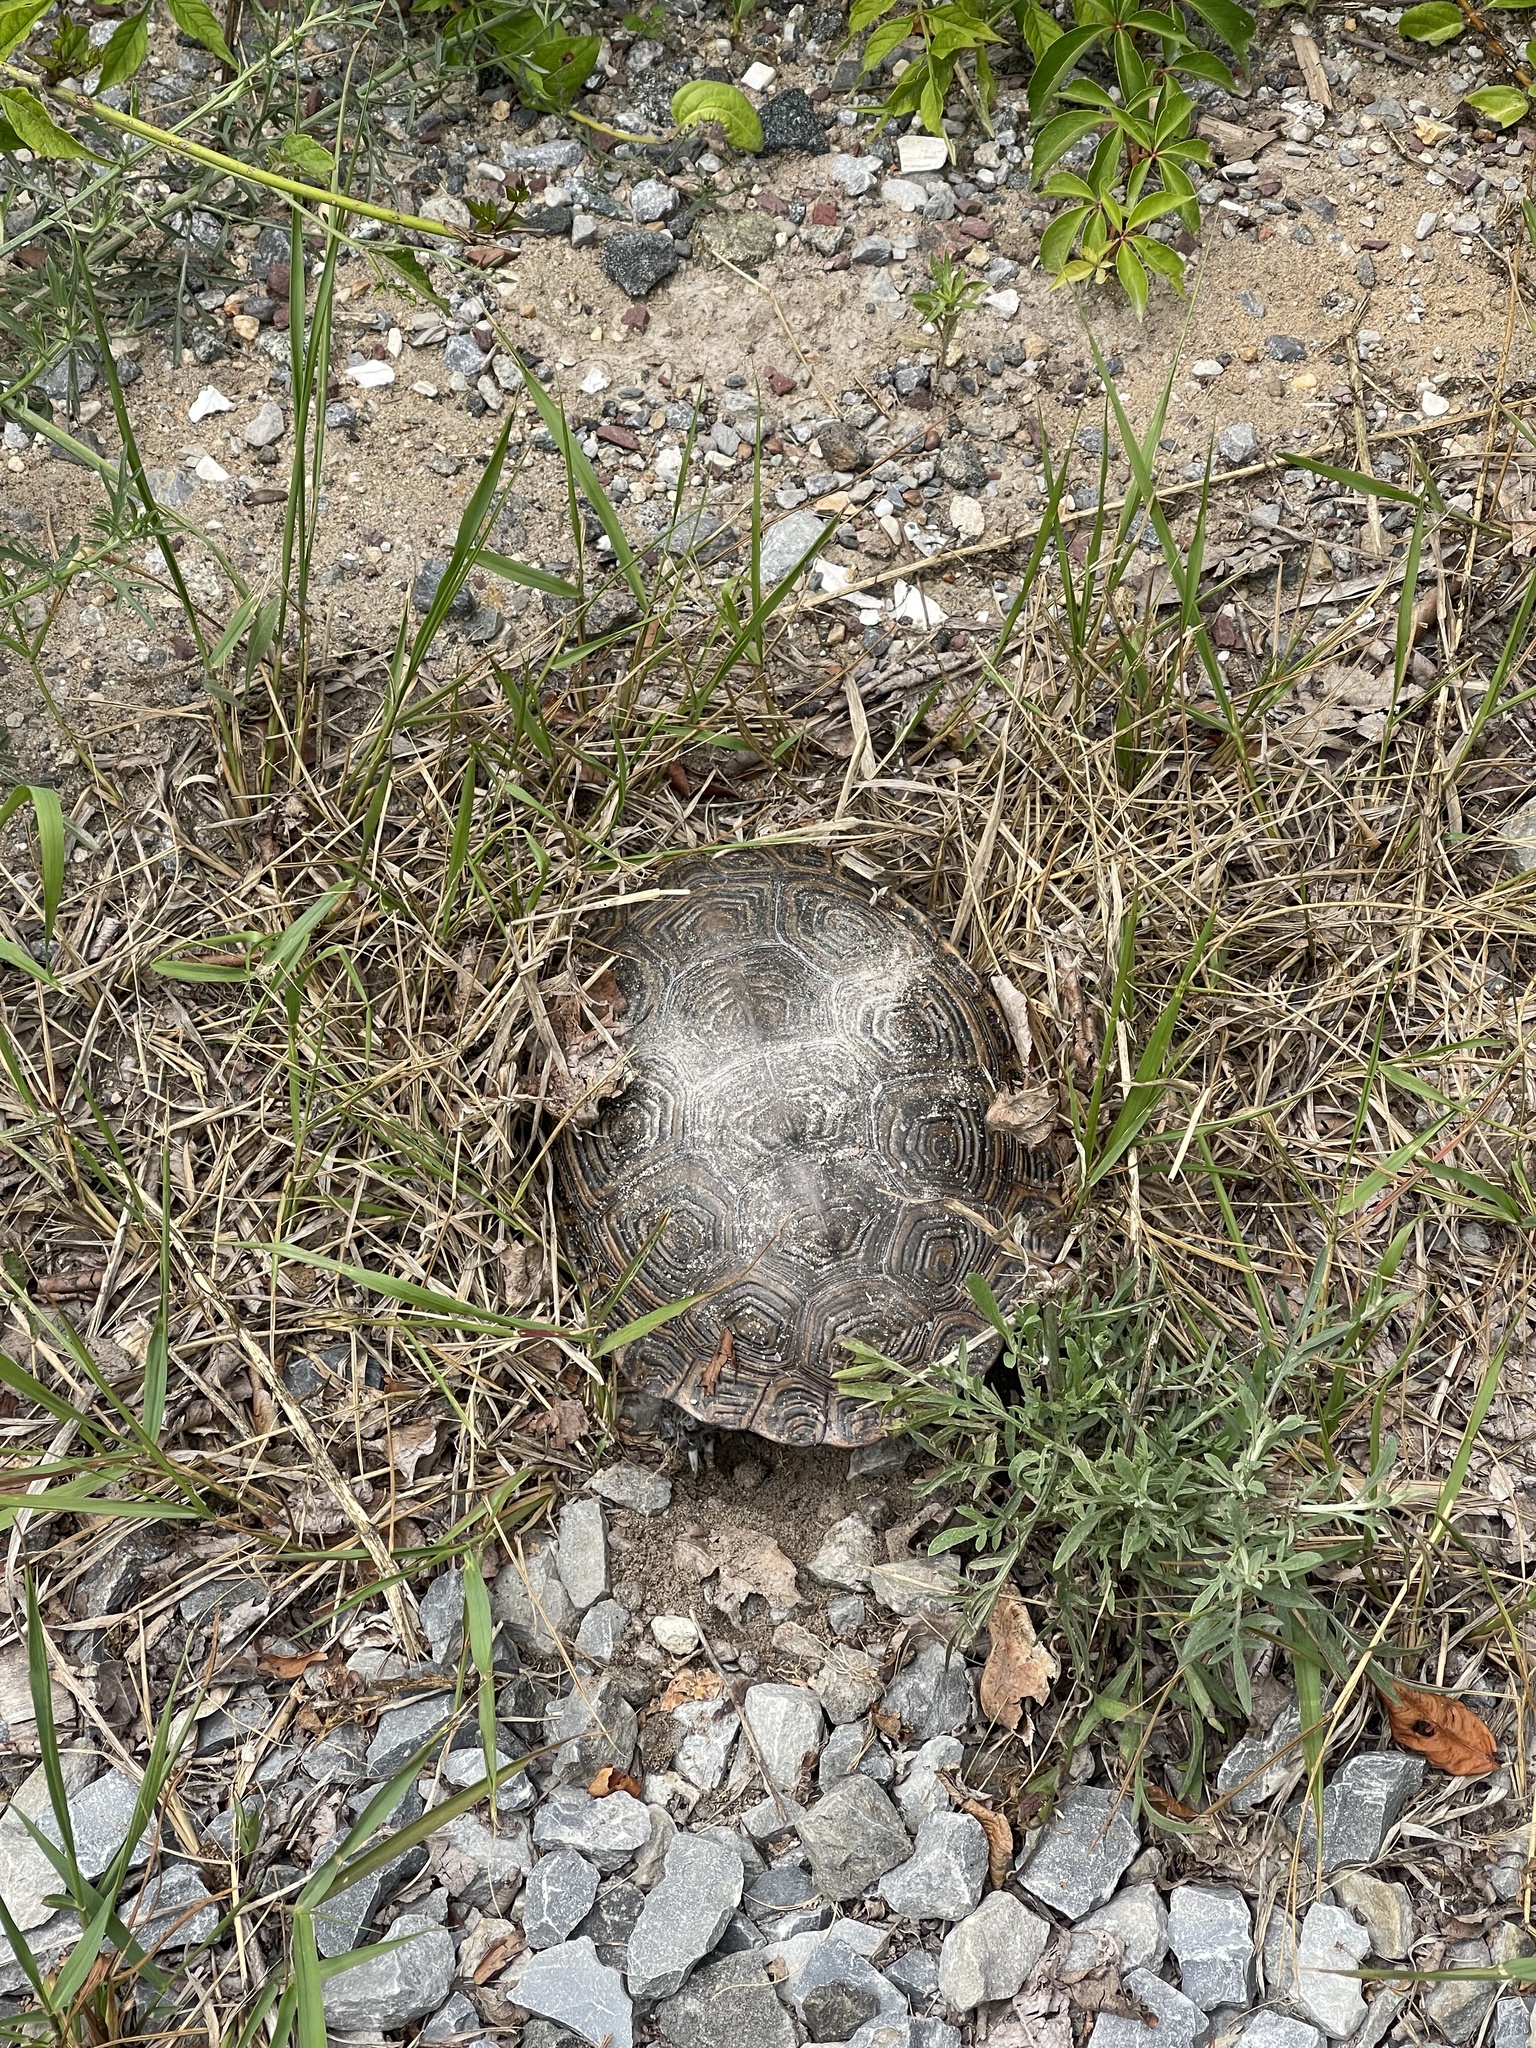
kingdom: Animalia
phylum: Chordata
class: Testudines
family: Emydidae
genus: Malaclemys
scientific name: Malaclemys terrapin
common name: Diamondback terrapin
